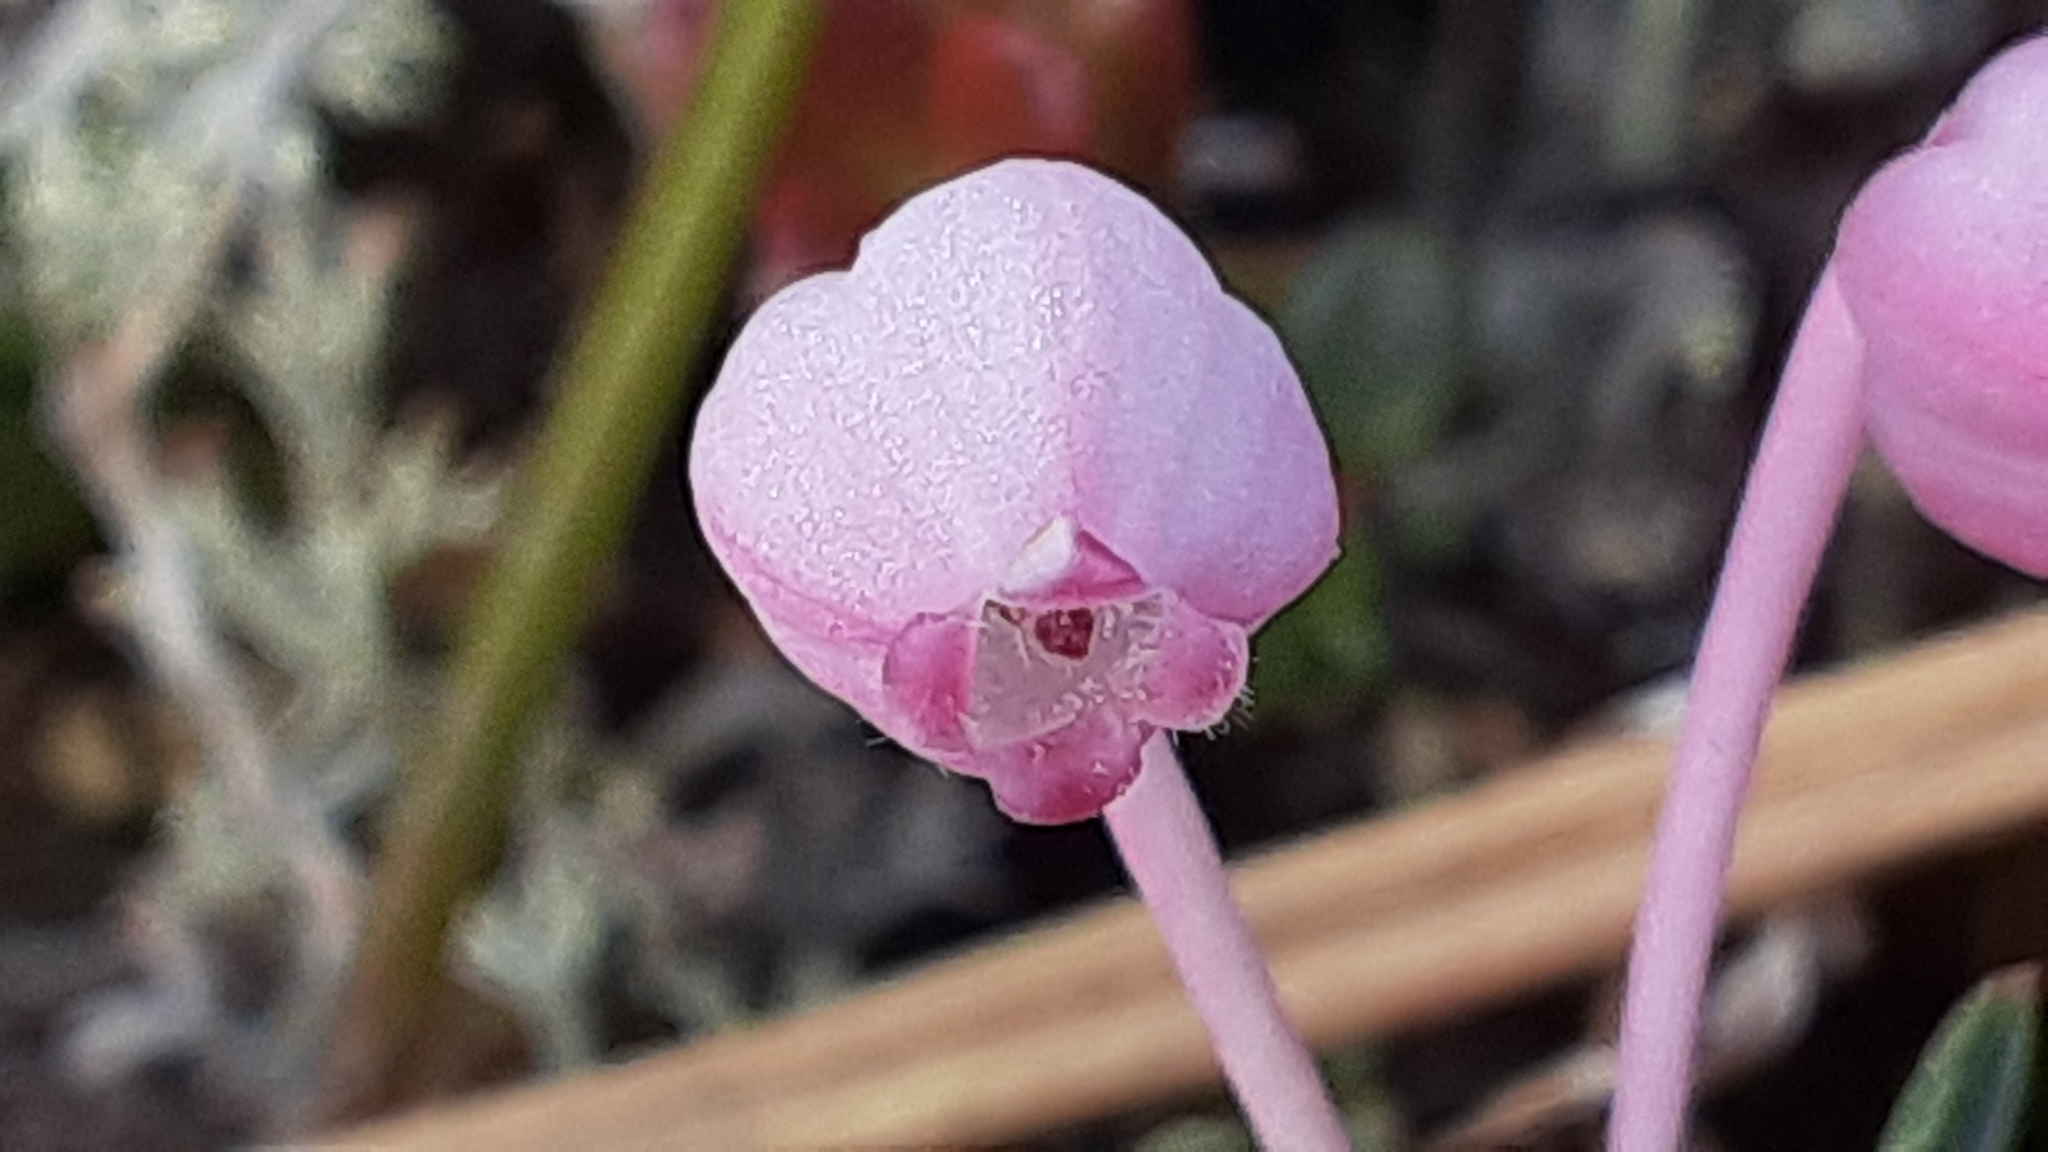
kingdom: Plantae
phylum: Tracheophyta
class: Magnoliopsida
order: Ericales
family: Ericaceae
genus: Andromeda
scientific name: Andromeda polifolia
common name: Bog-rosemary
